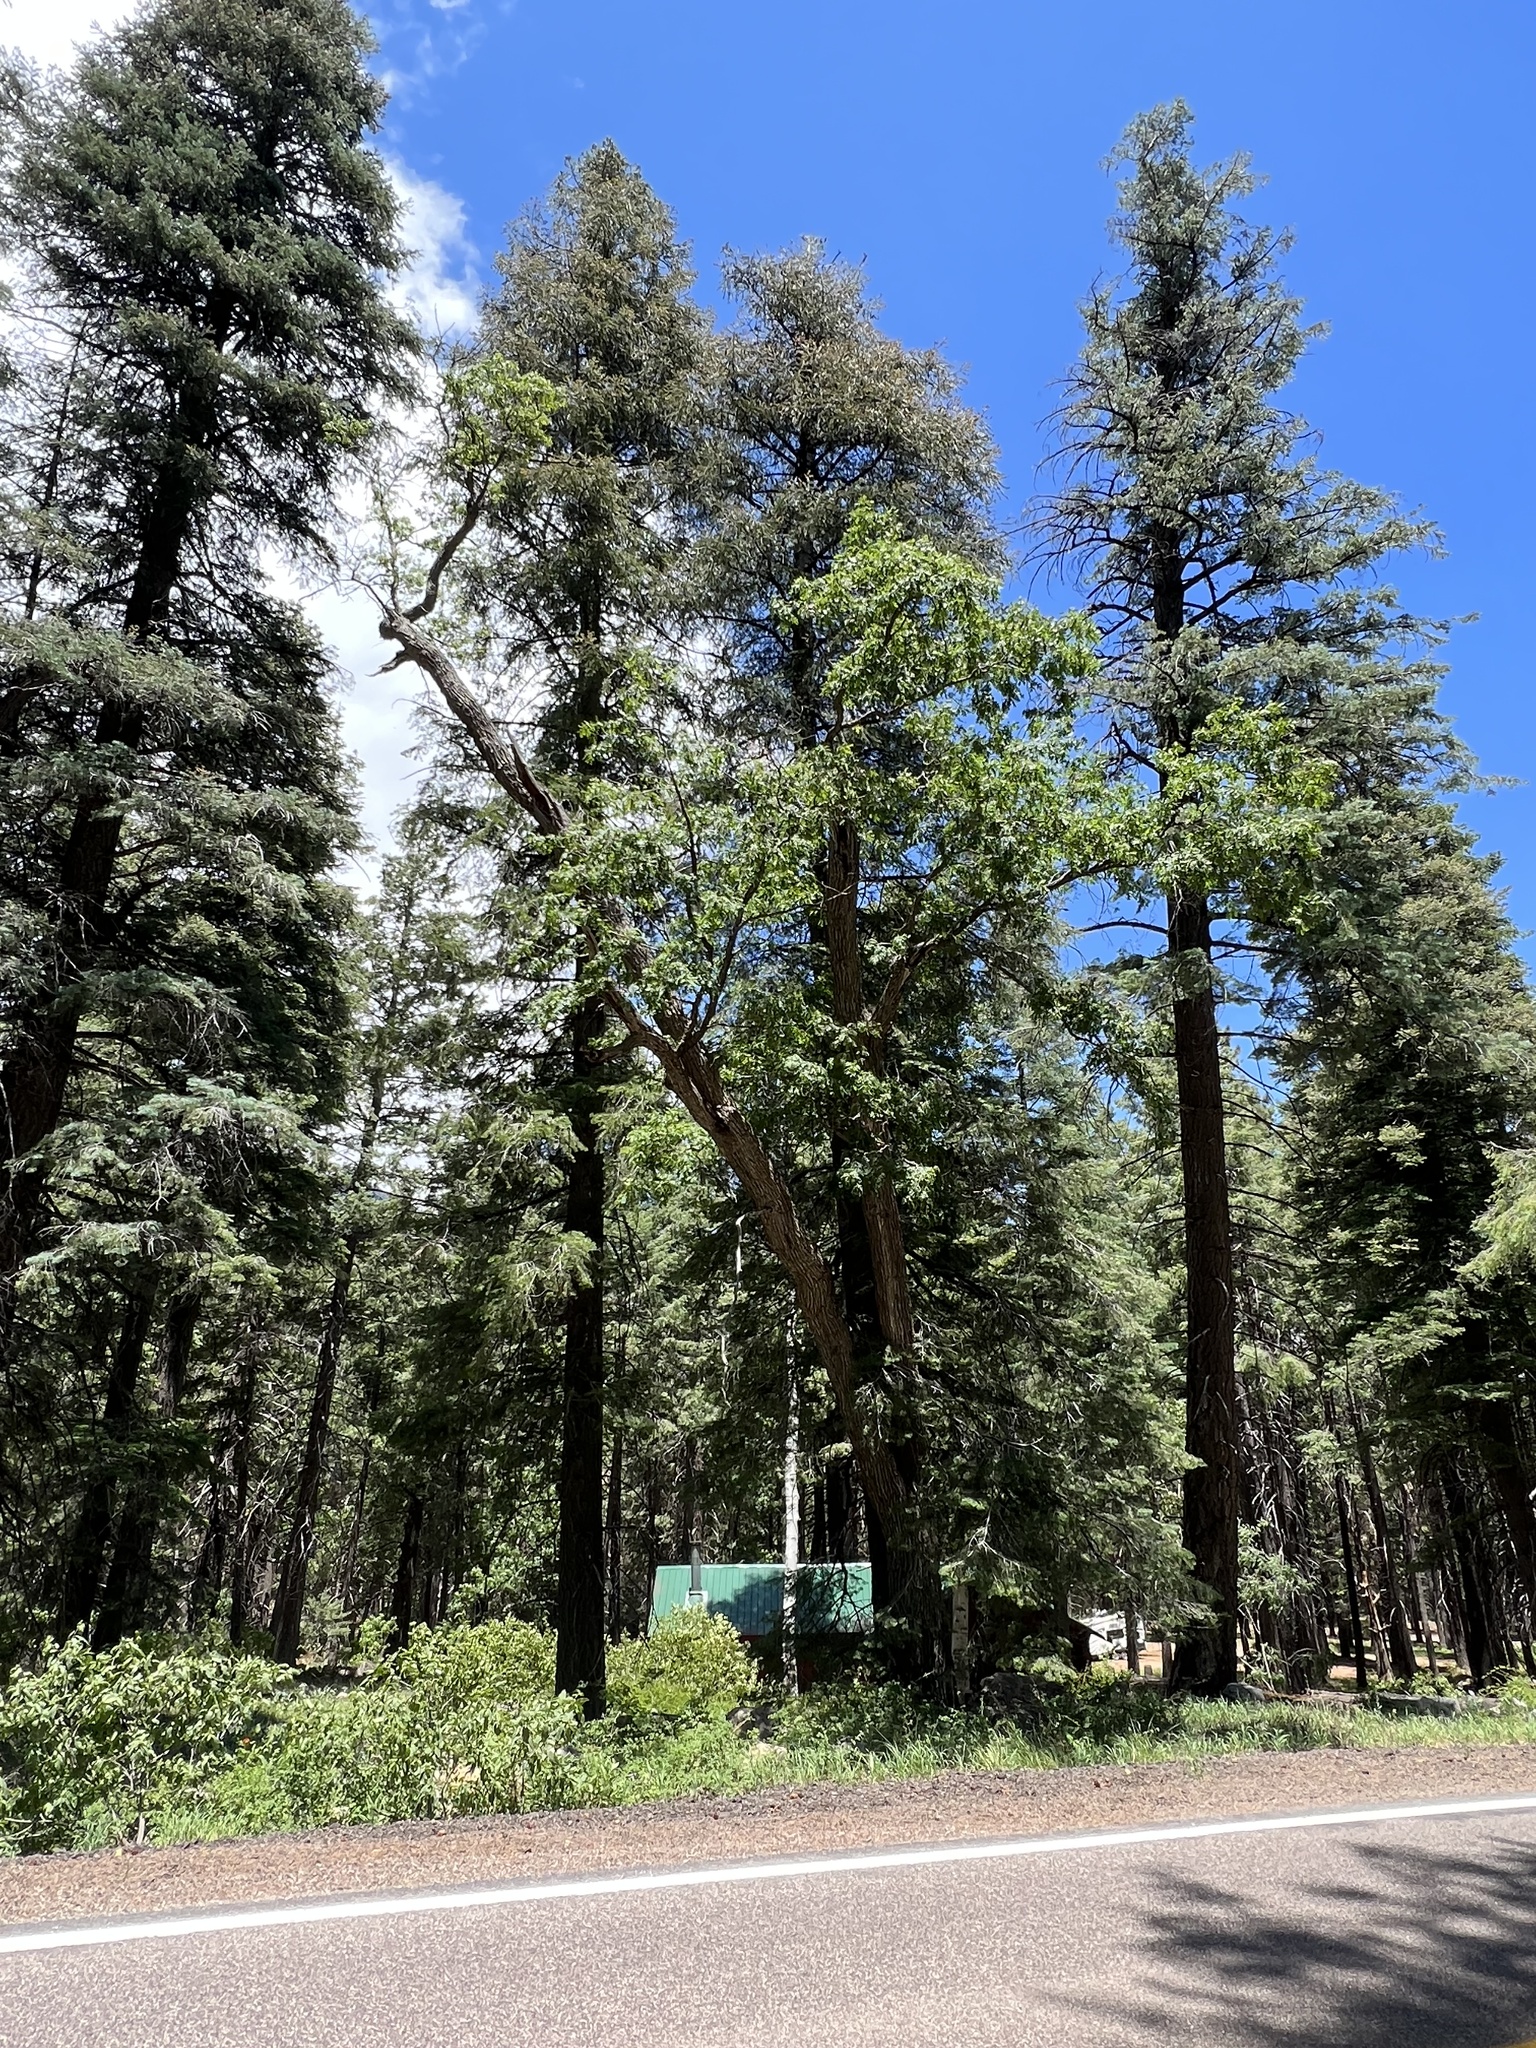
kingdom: Plantae
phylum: Tracheophyta
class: Magnoliopsida
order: Fagales
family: Fagaceae
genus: Quercus
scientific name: Quercus gambelii
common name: Gambel oak
